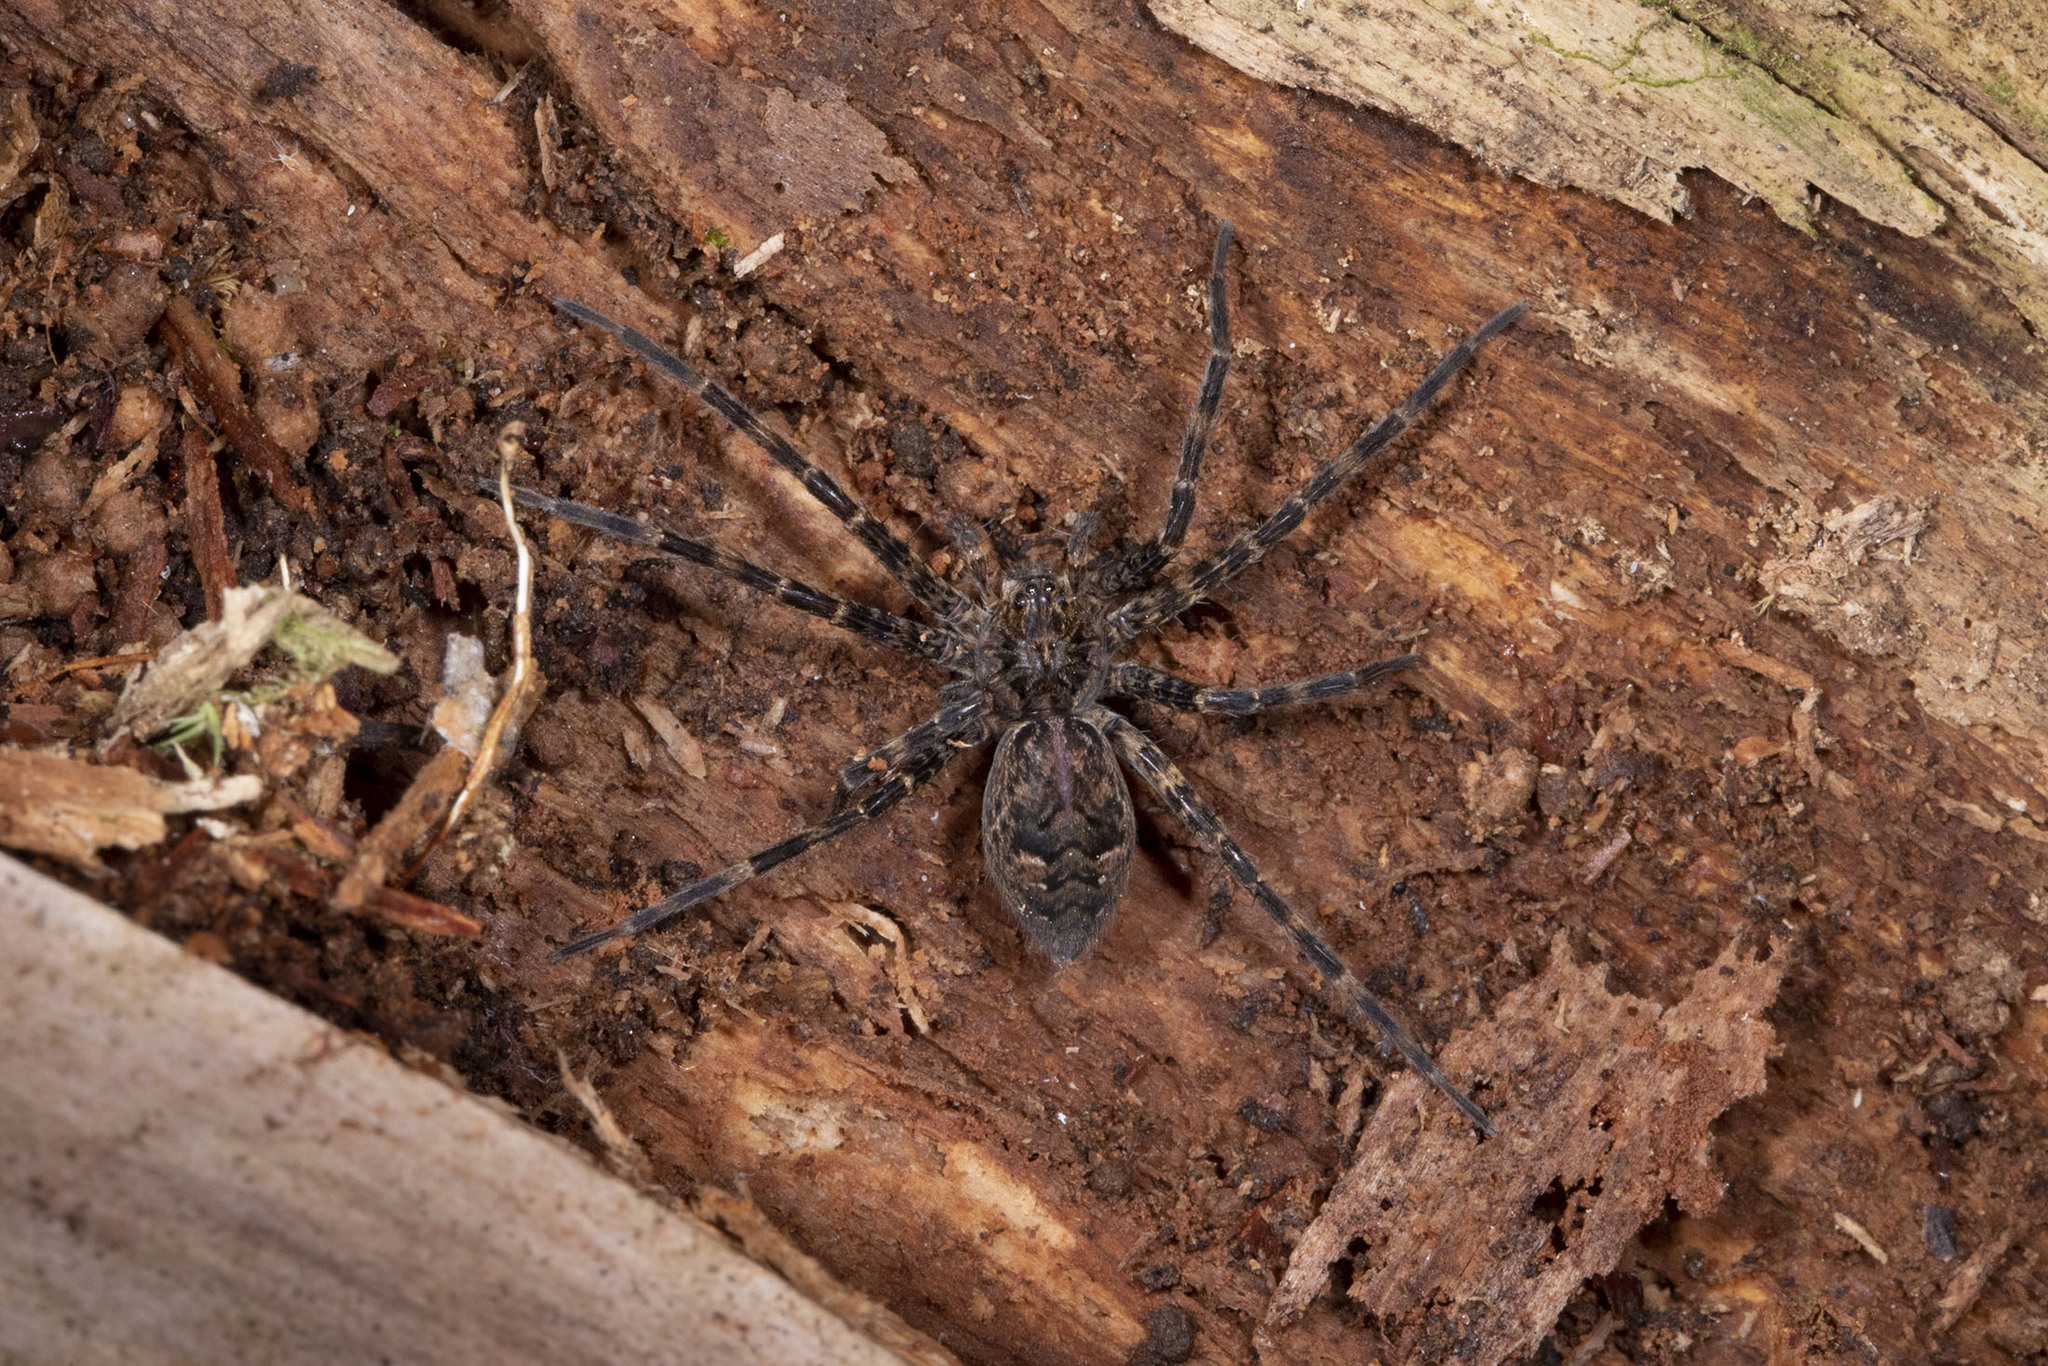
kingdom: Animalia
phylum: Arthropoda
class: Arachnida
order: Araneae
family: Pisauridae
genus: Dolomedes
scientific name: Dolomedes tenebrosus
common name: Dark fishing spider
